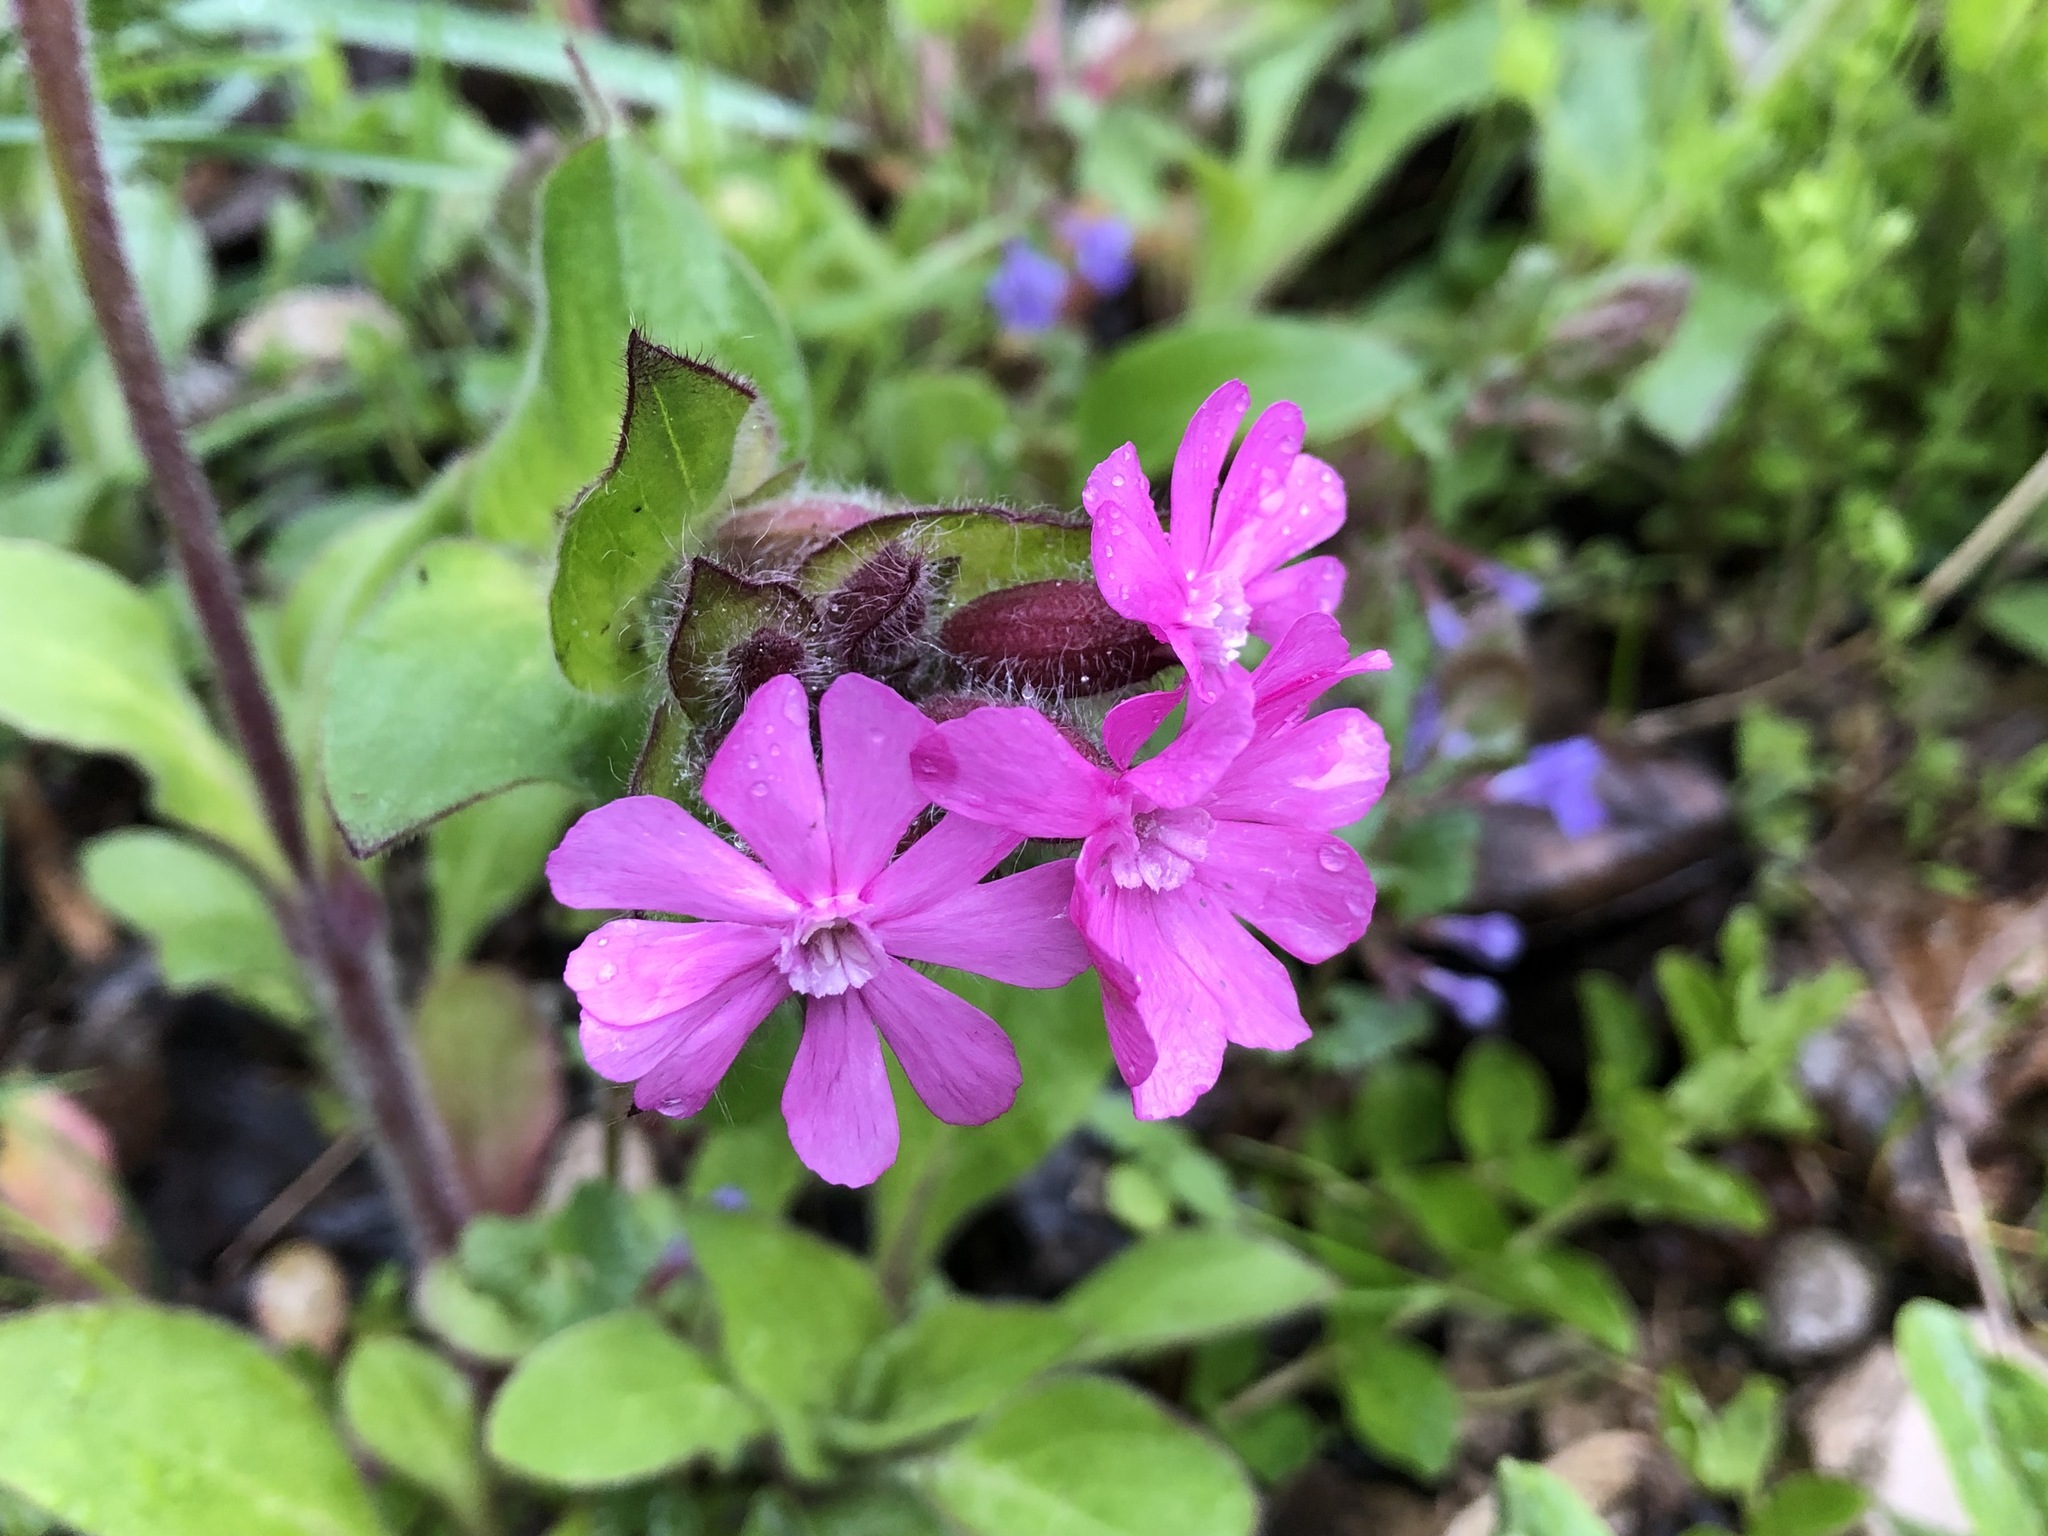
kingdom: Plantae
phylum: Tracheophyta
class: Magnoliopsida
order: Caryophyllales
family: Caryophyllaceae
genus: Silene
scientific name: Silene dioica
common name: Red campion
